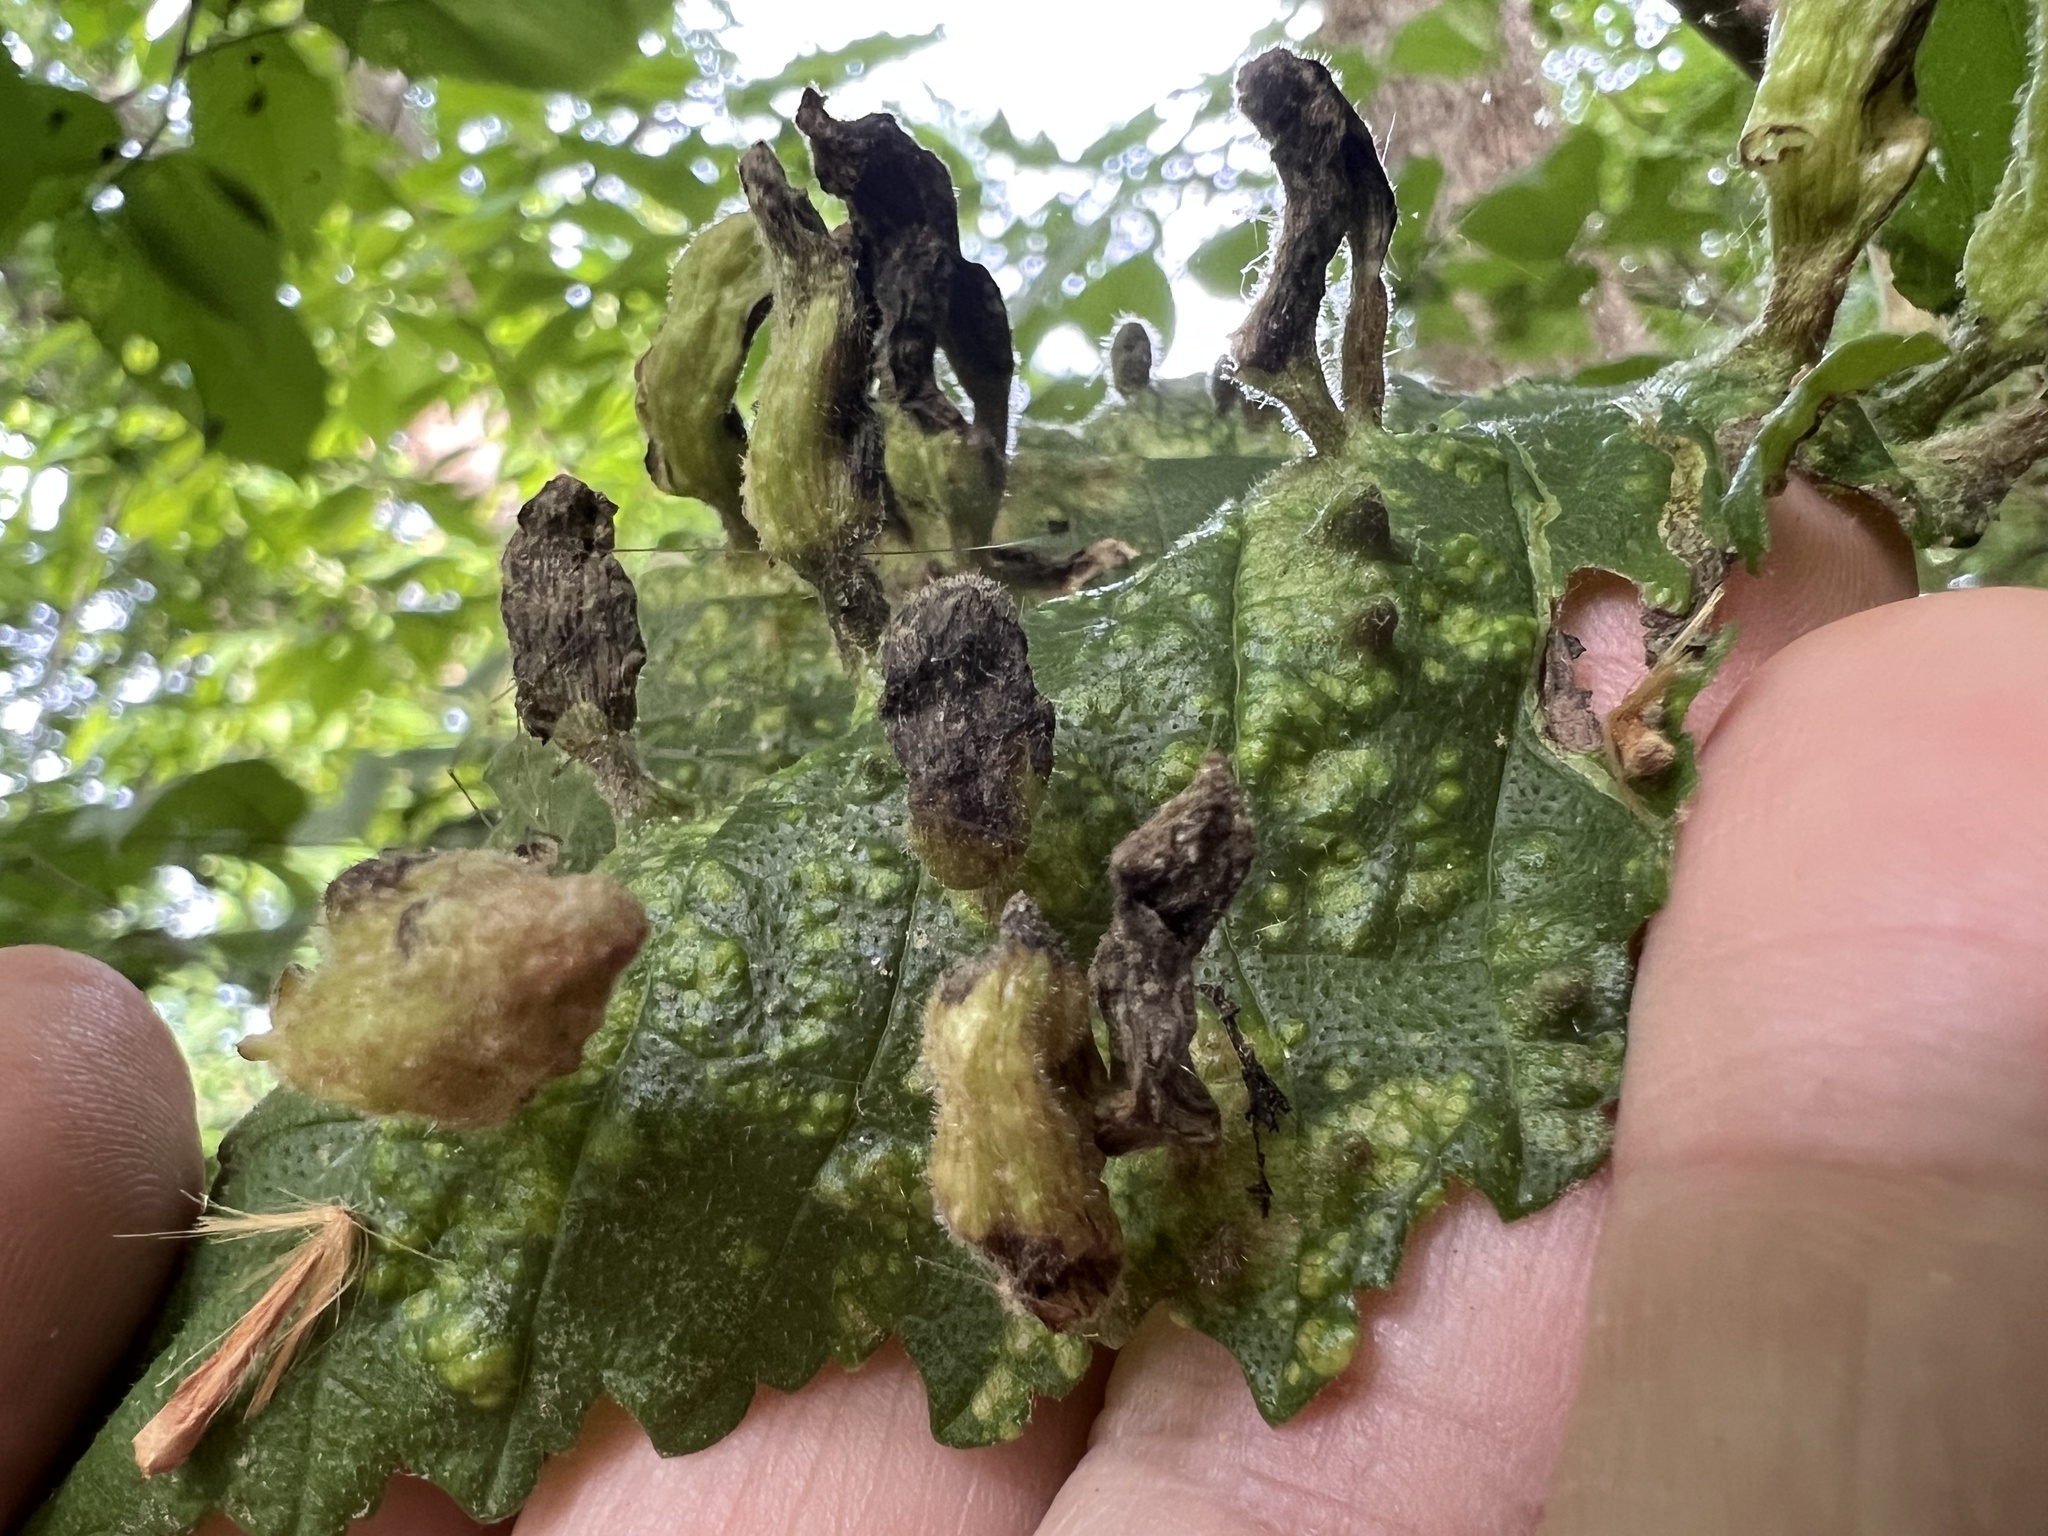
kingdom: Animalia
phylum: Arthropoda
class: Insecta
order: Hemiptera
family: Aphididae
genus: Tetraneura
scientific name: Tetraneura nigriabdominalis
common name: Aphid
